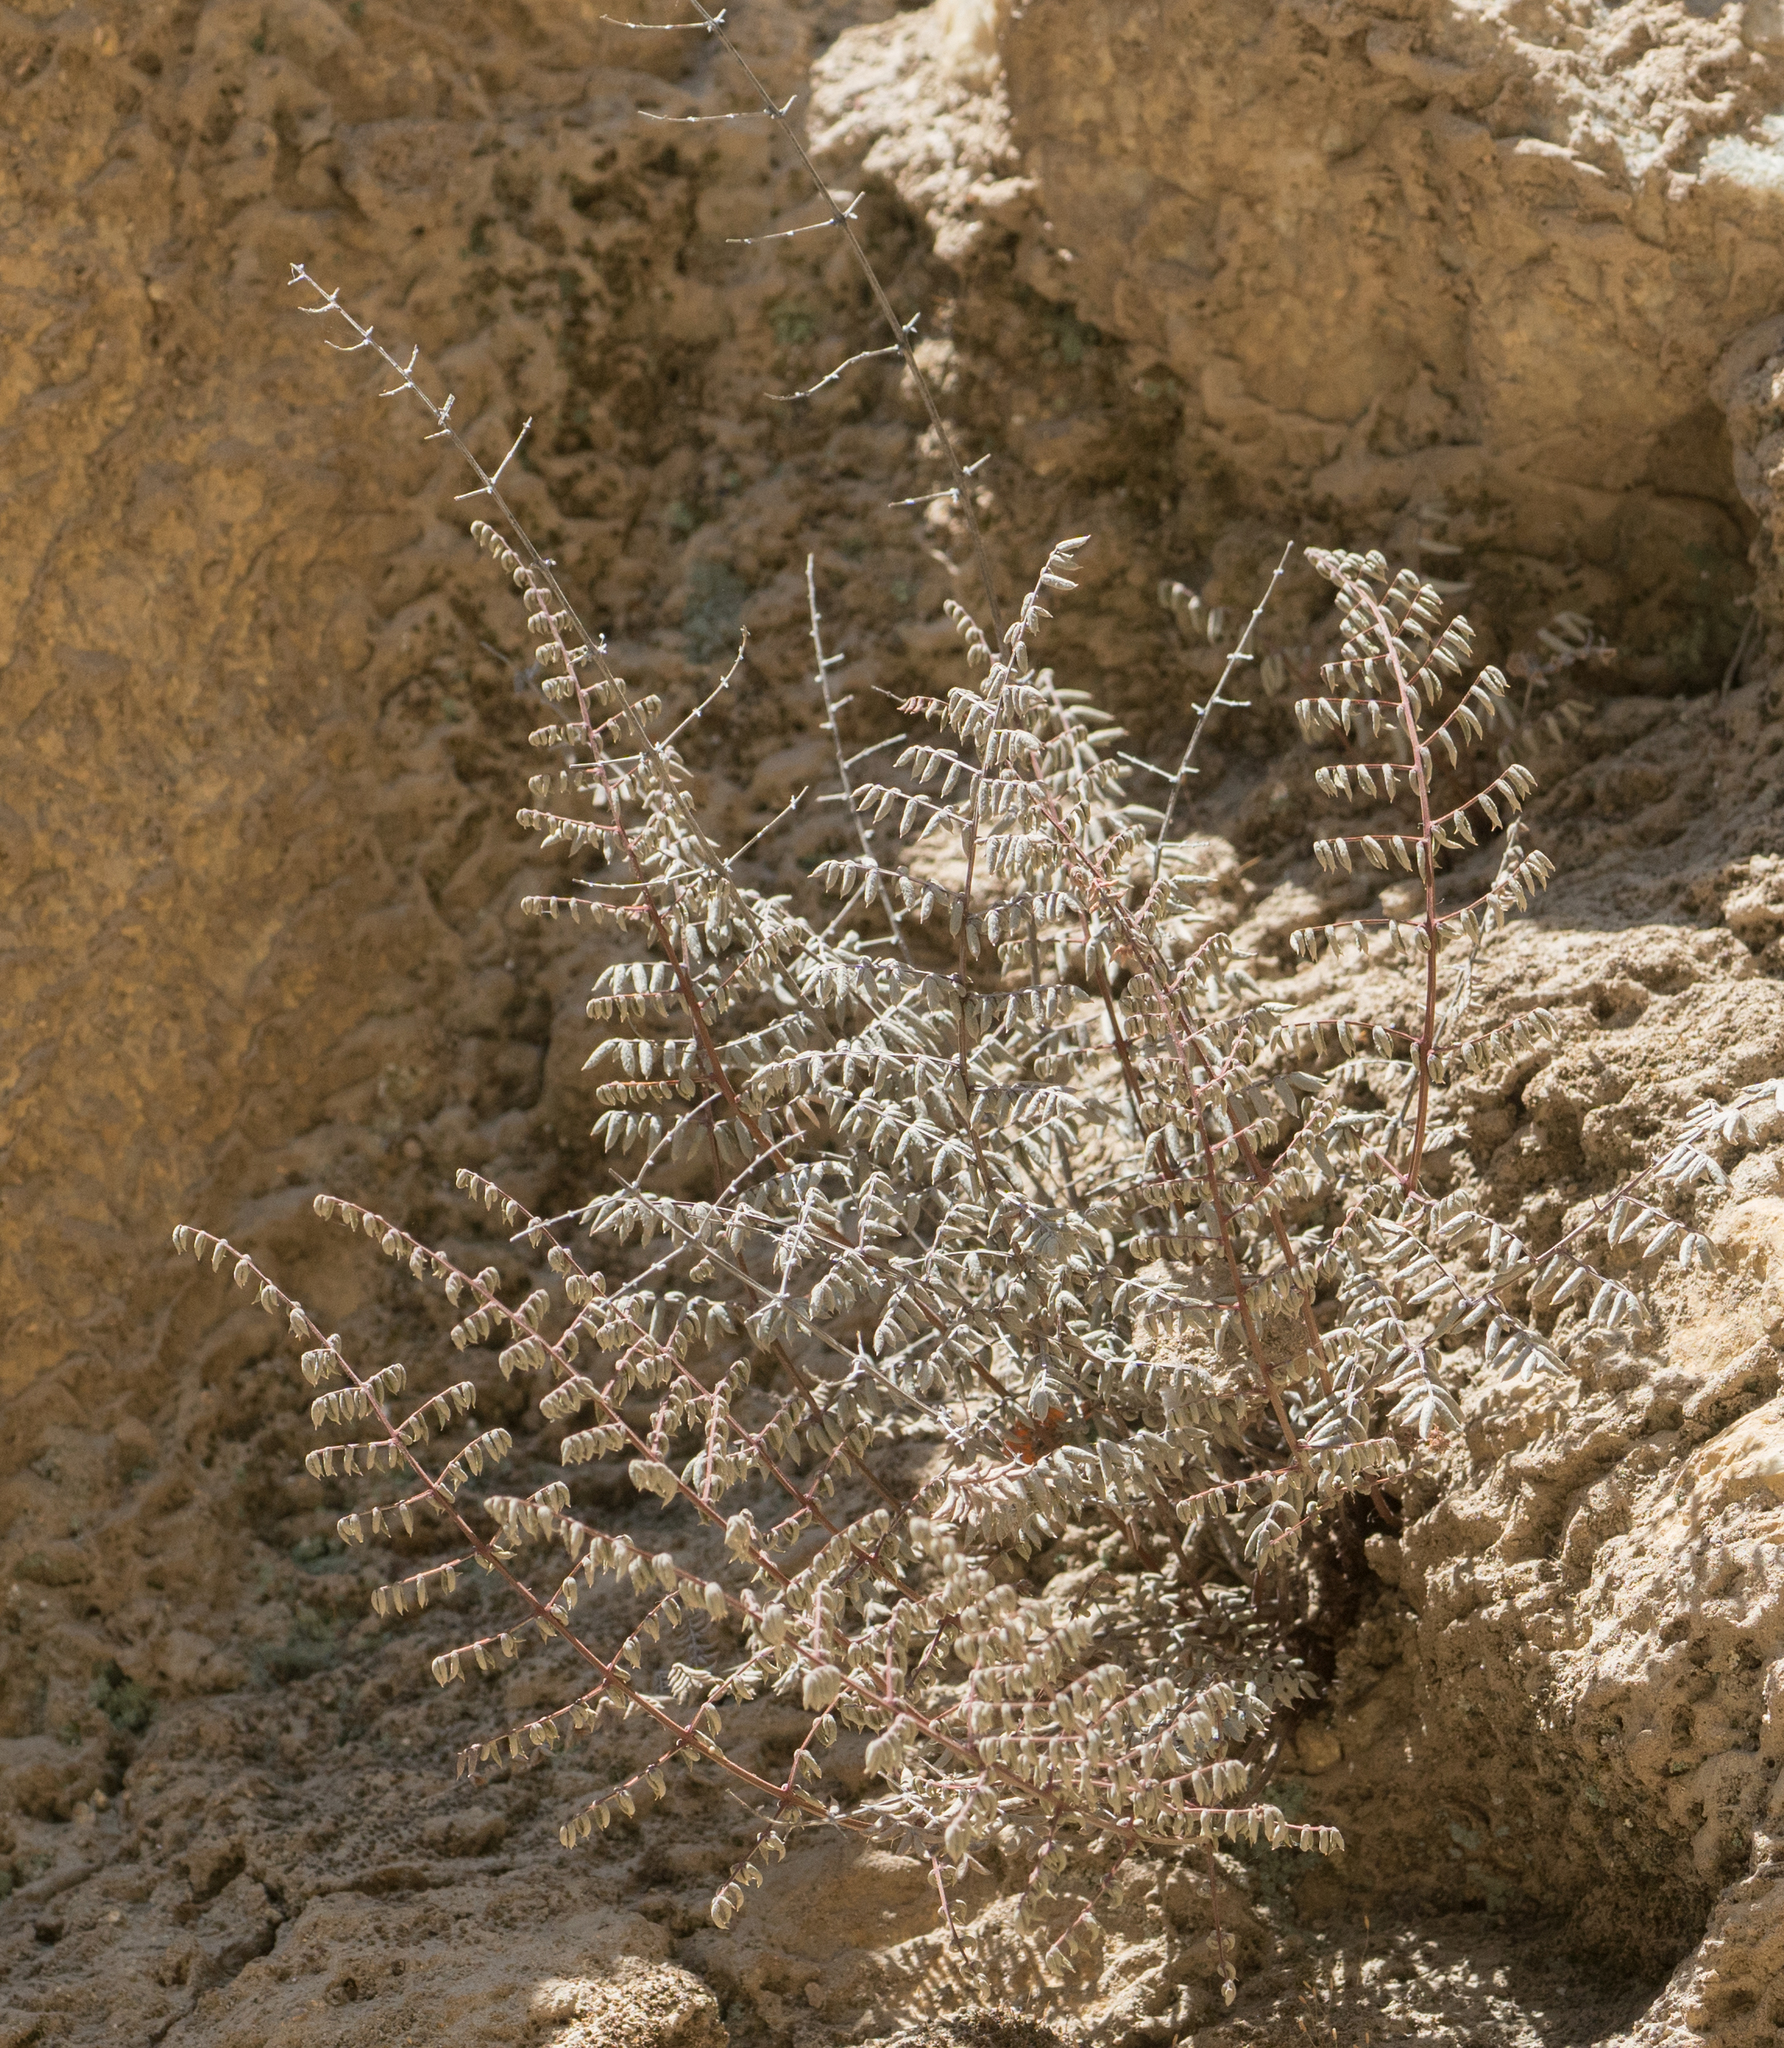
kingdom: Plantae
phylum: Tracheophyta
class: Polypodiopsida
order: Polypodiales
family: Pteridaceae
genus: Pellaea
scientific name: Pellaea mucronata
